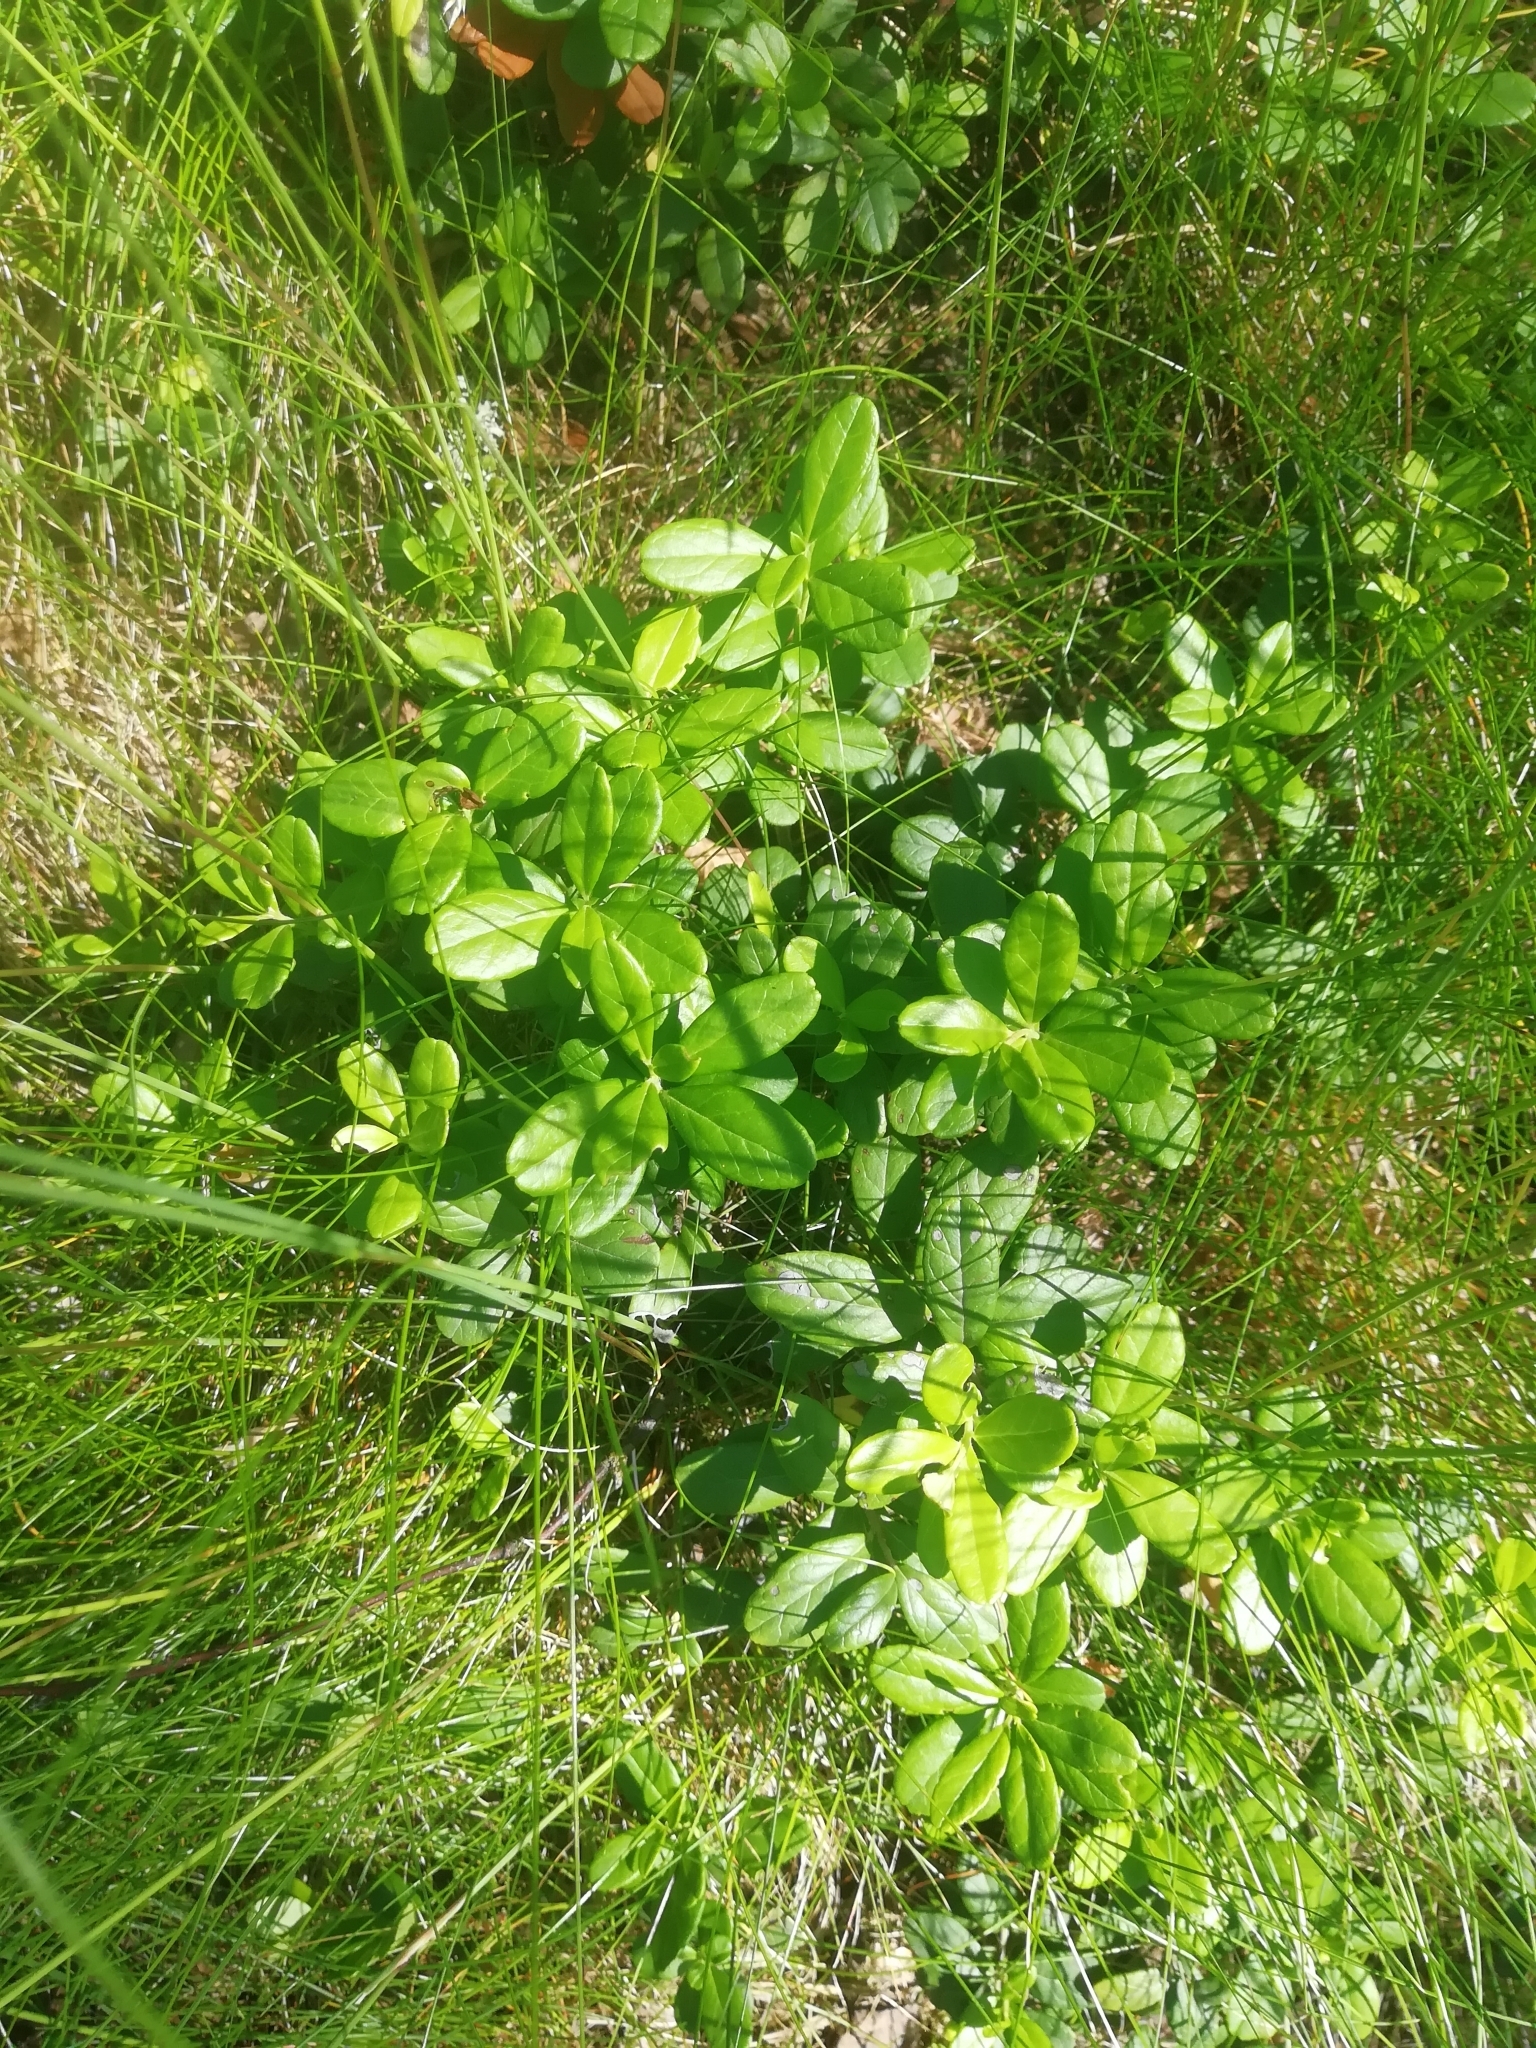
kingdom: Plantae
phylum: Tracheophyta
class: Magnoliopsida
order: Ericales
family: Ericaceae
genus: Vaccinium
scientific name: Vaccinium vitis-idaea
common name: Cowberry
